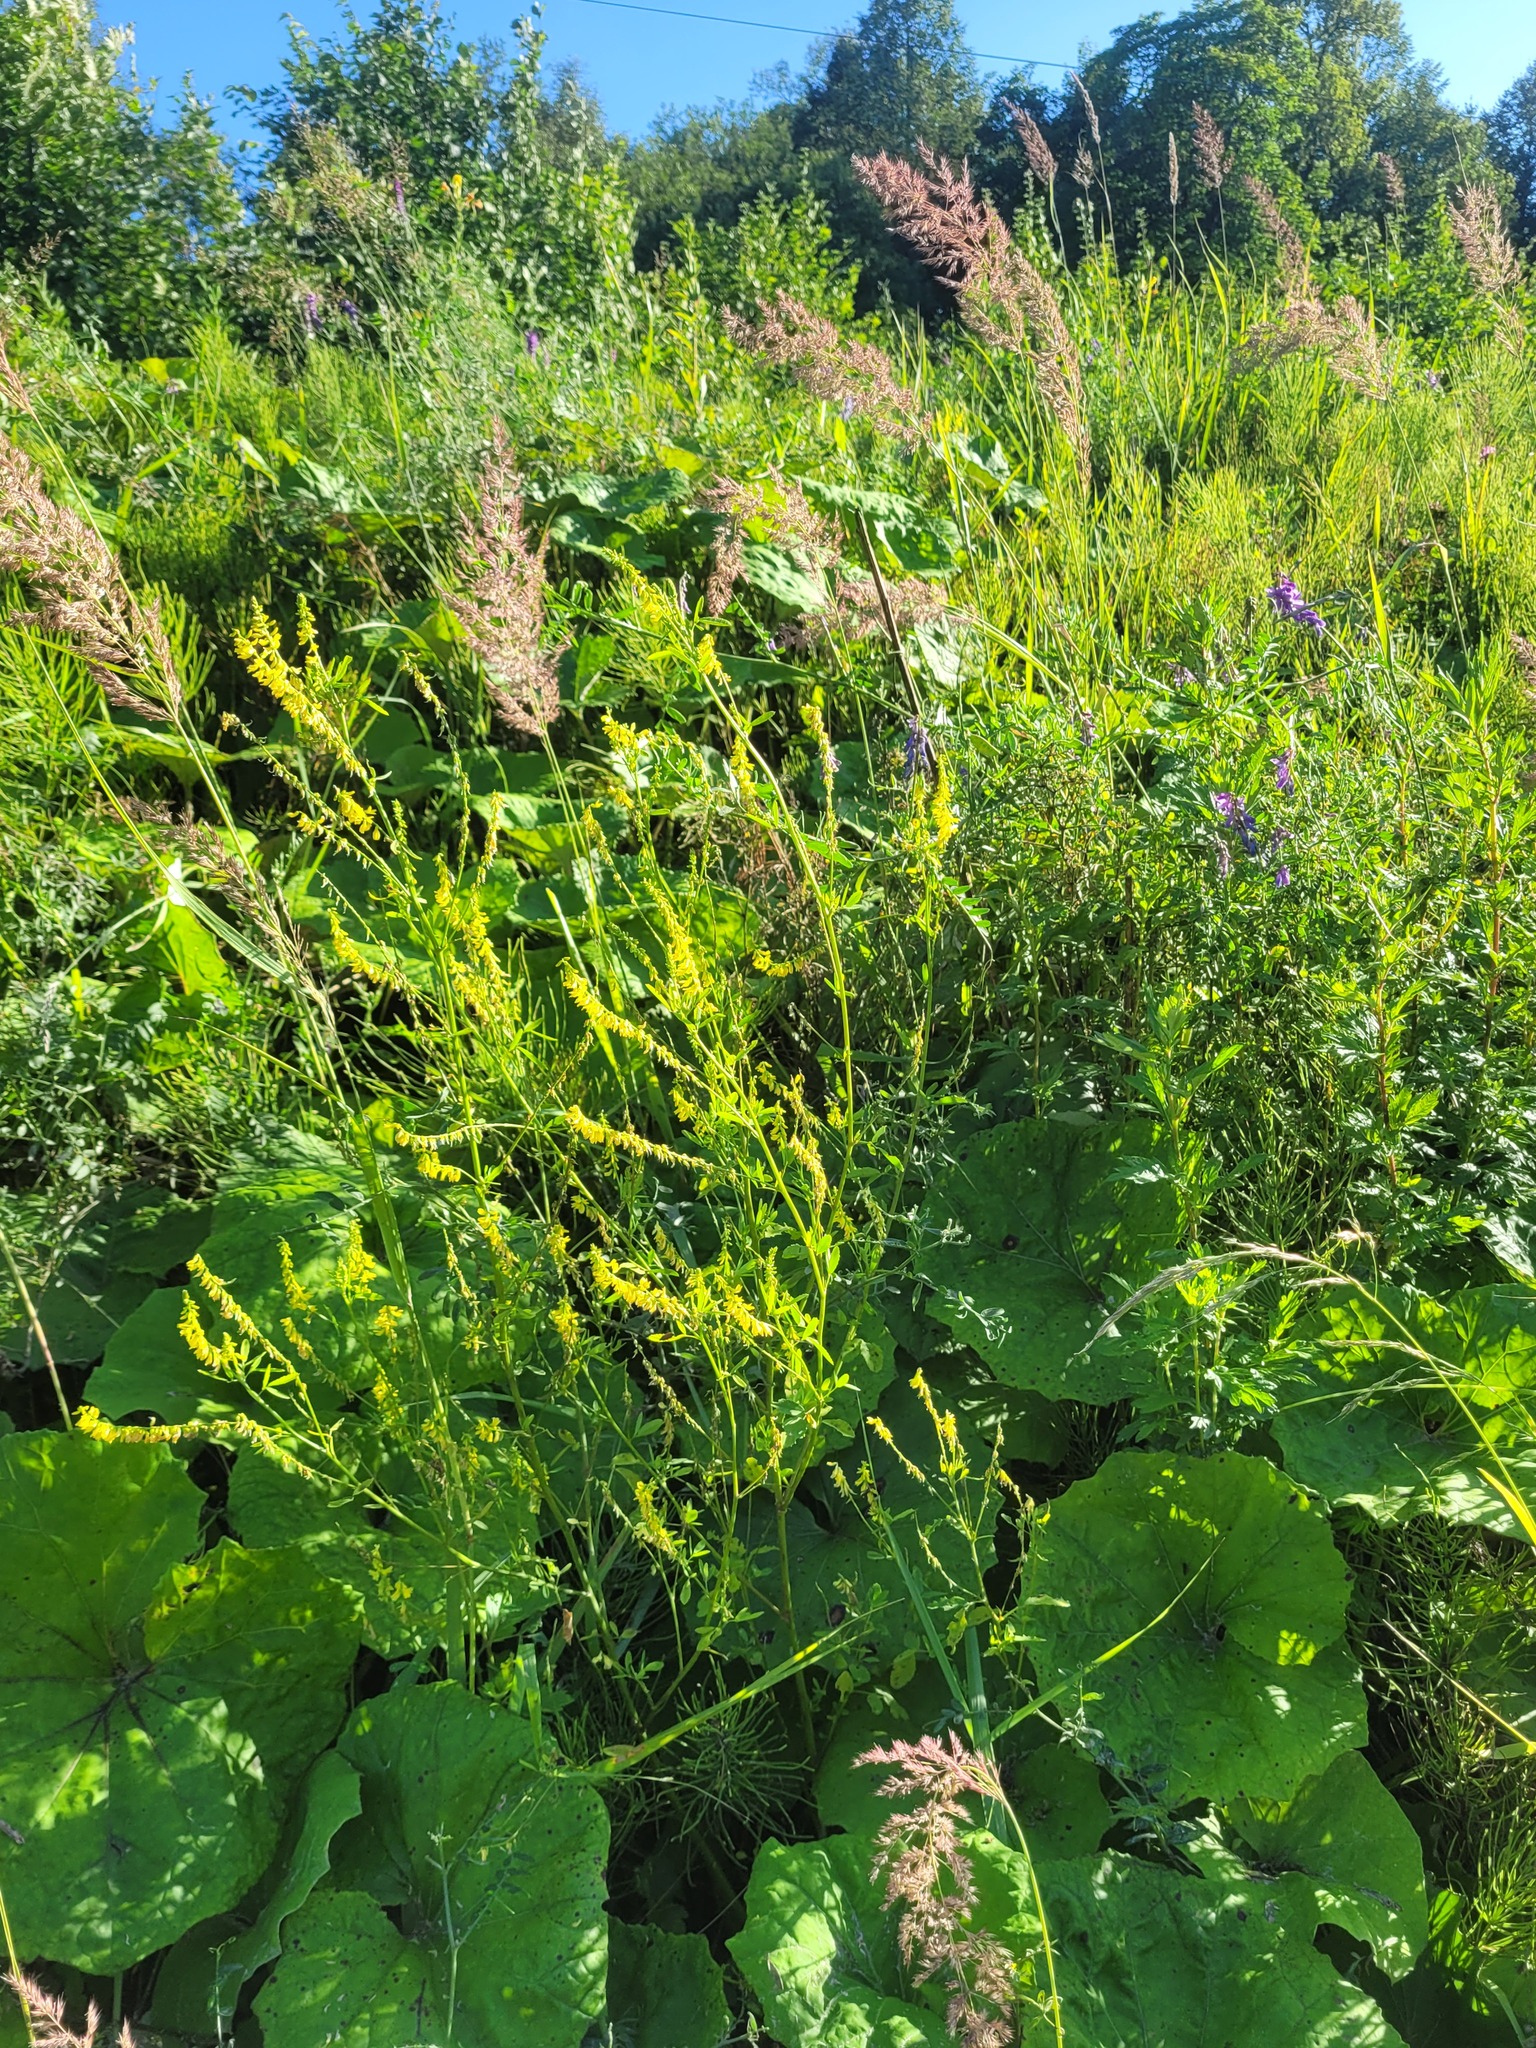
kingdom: Plantae
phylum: Tracheophyta
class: Magnoliopsida
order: Fabales
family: Fabaceae
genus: Melilotus
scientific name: Melilotus officinalis
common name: Sweetclover
